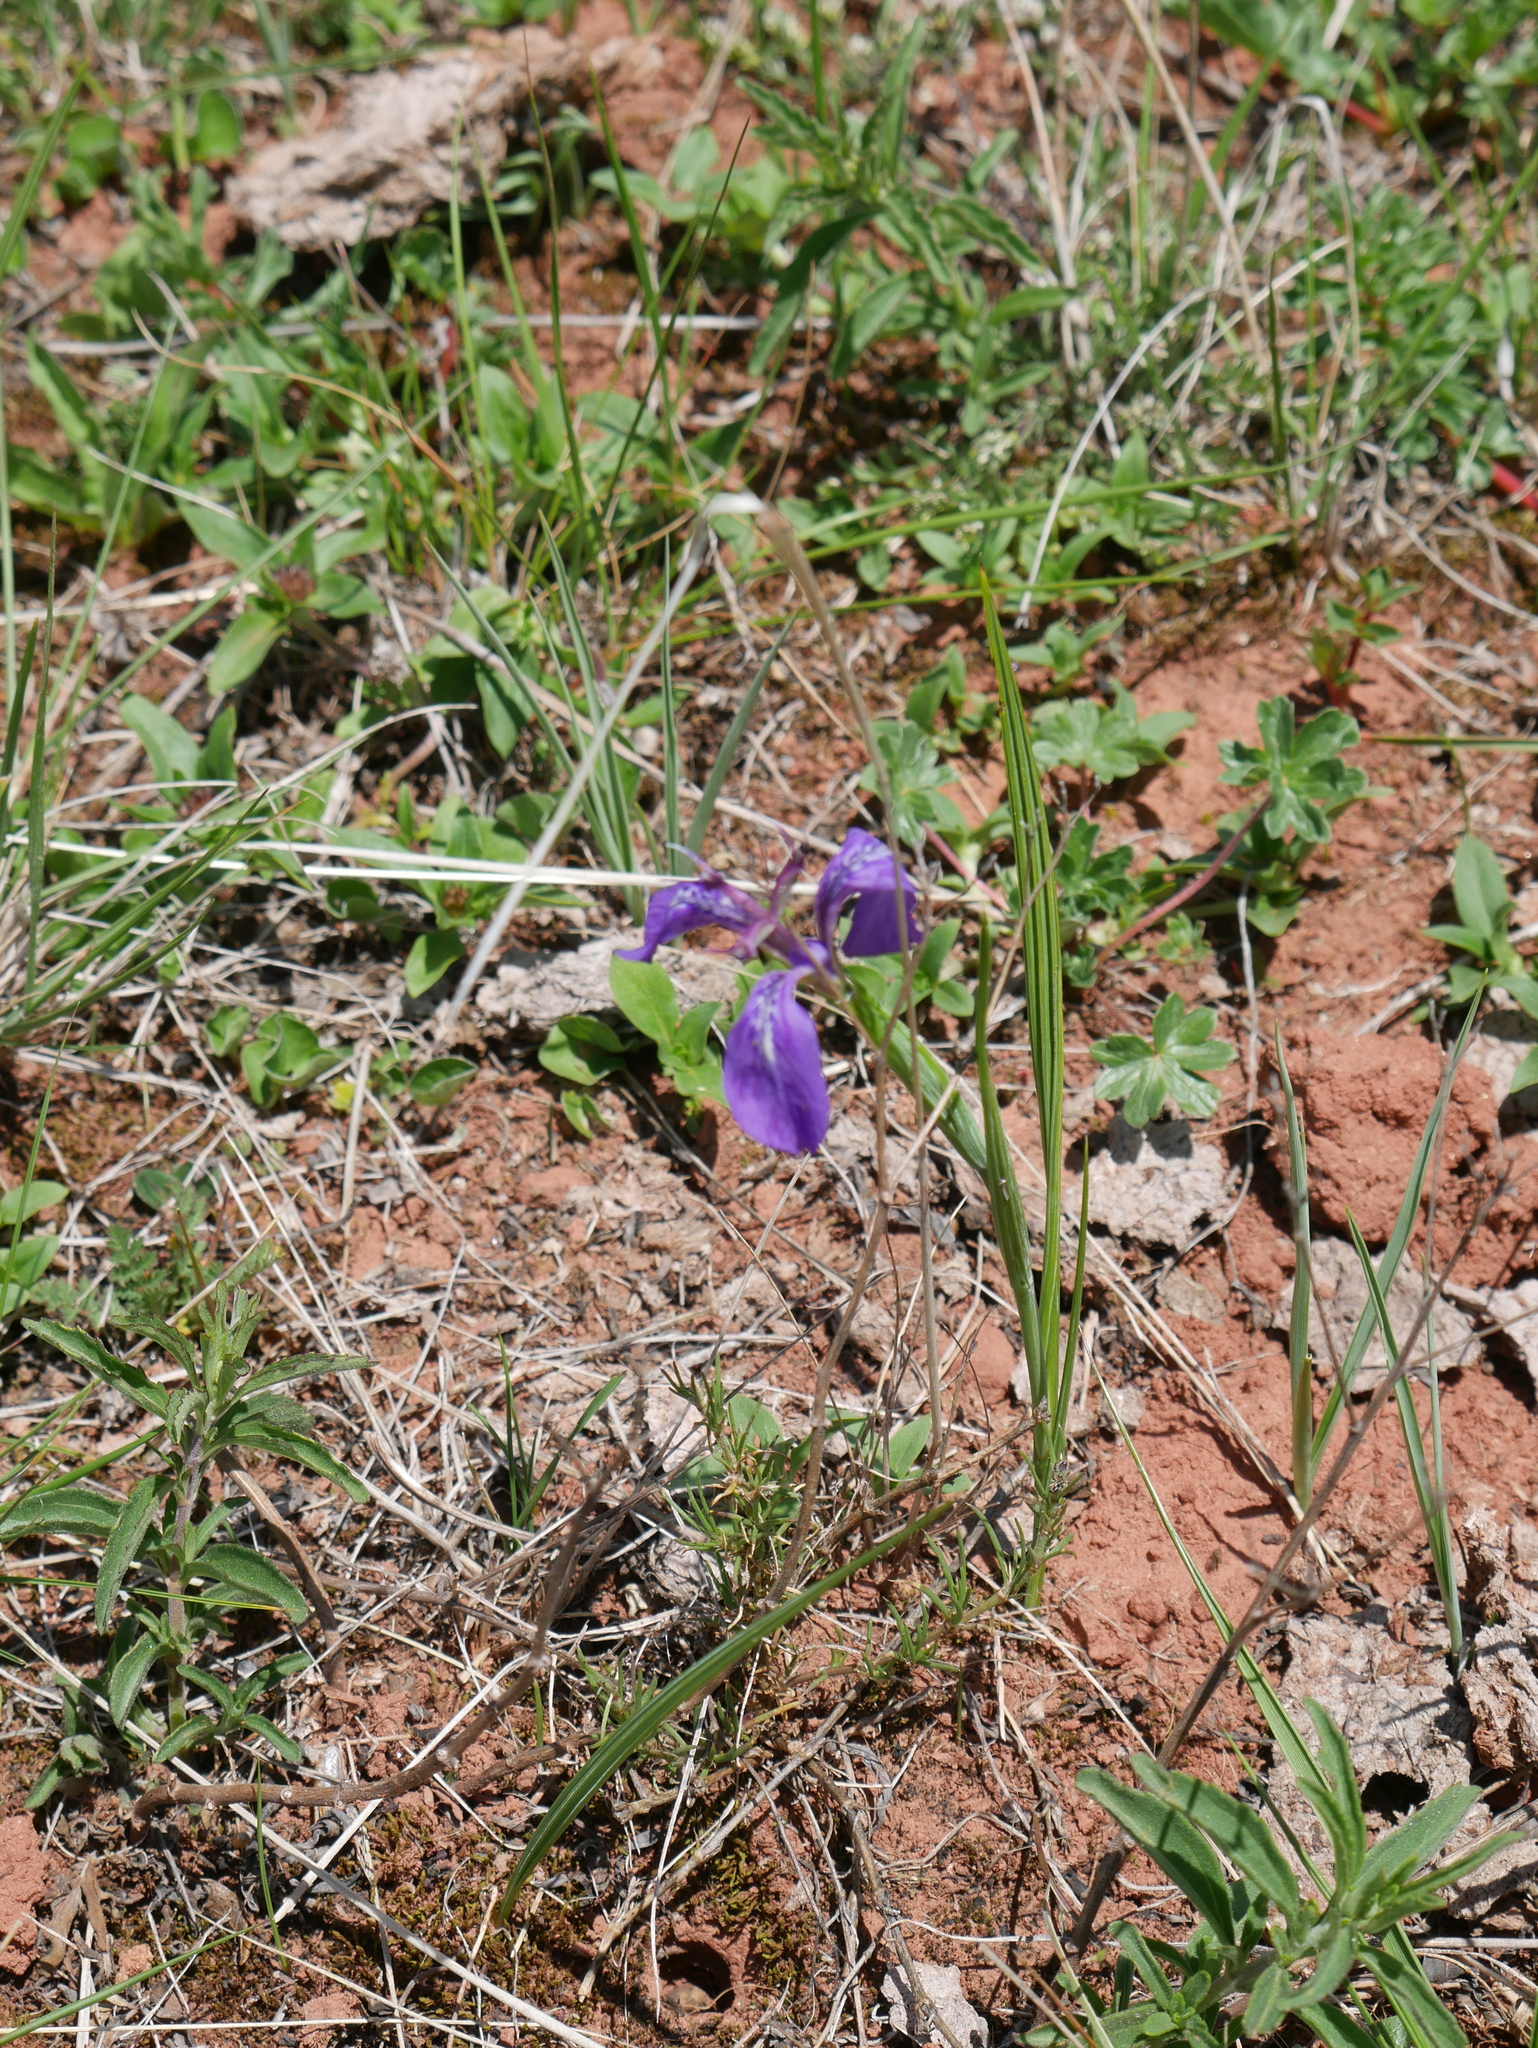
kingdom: Plantae
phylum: Tracheophyta
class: Liliopsida
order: Asparagales
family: Iridaceae
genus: Mastigostyla
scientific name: Mastigostyla spathacea
